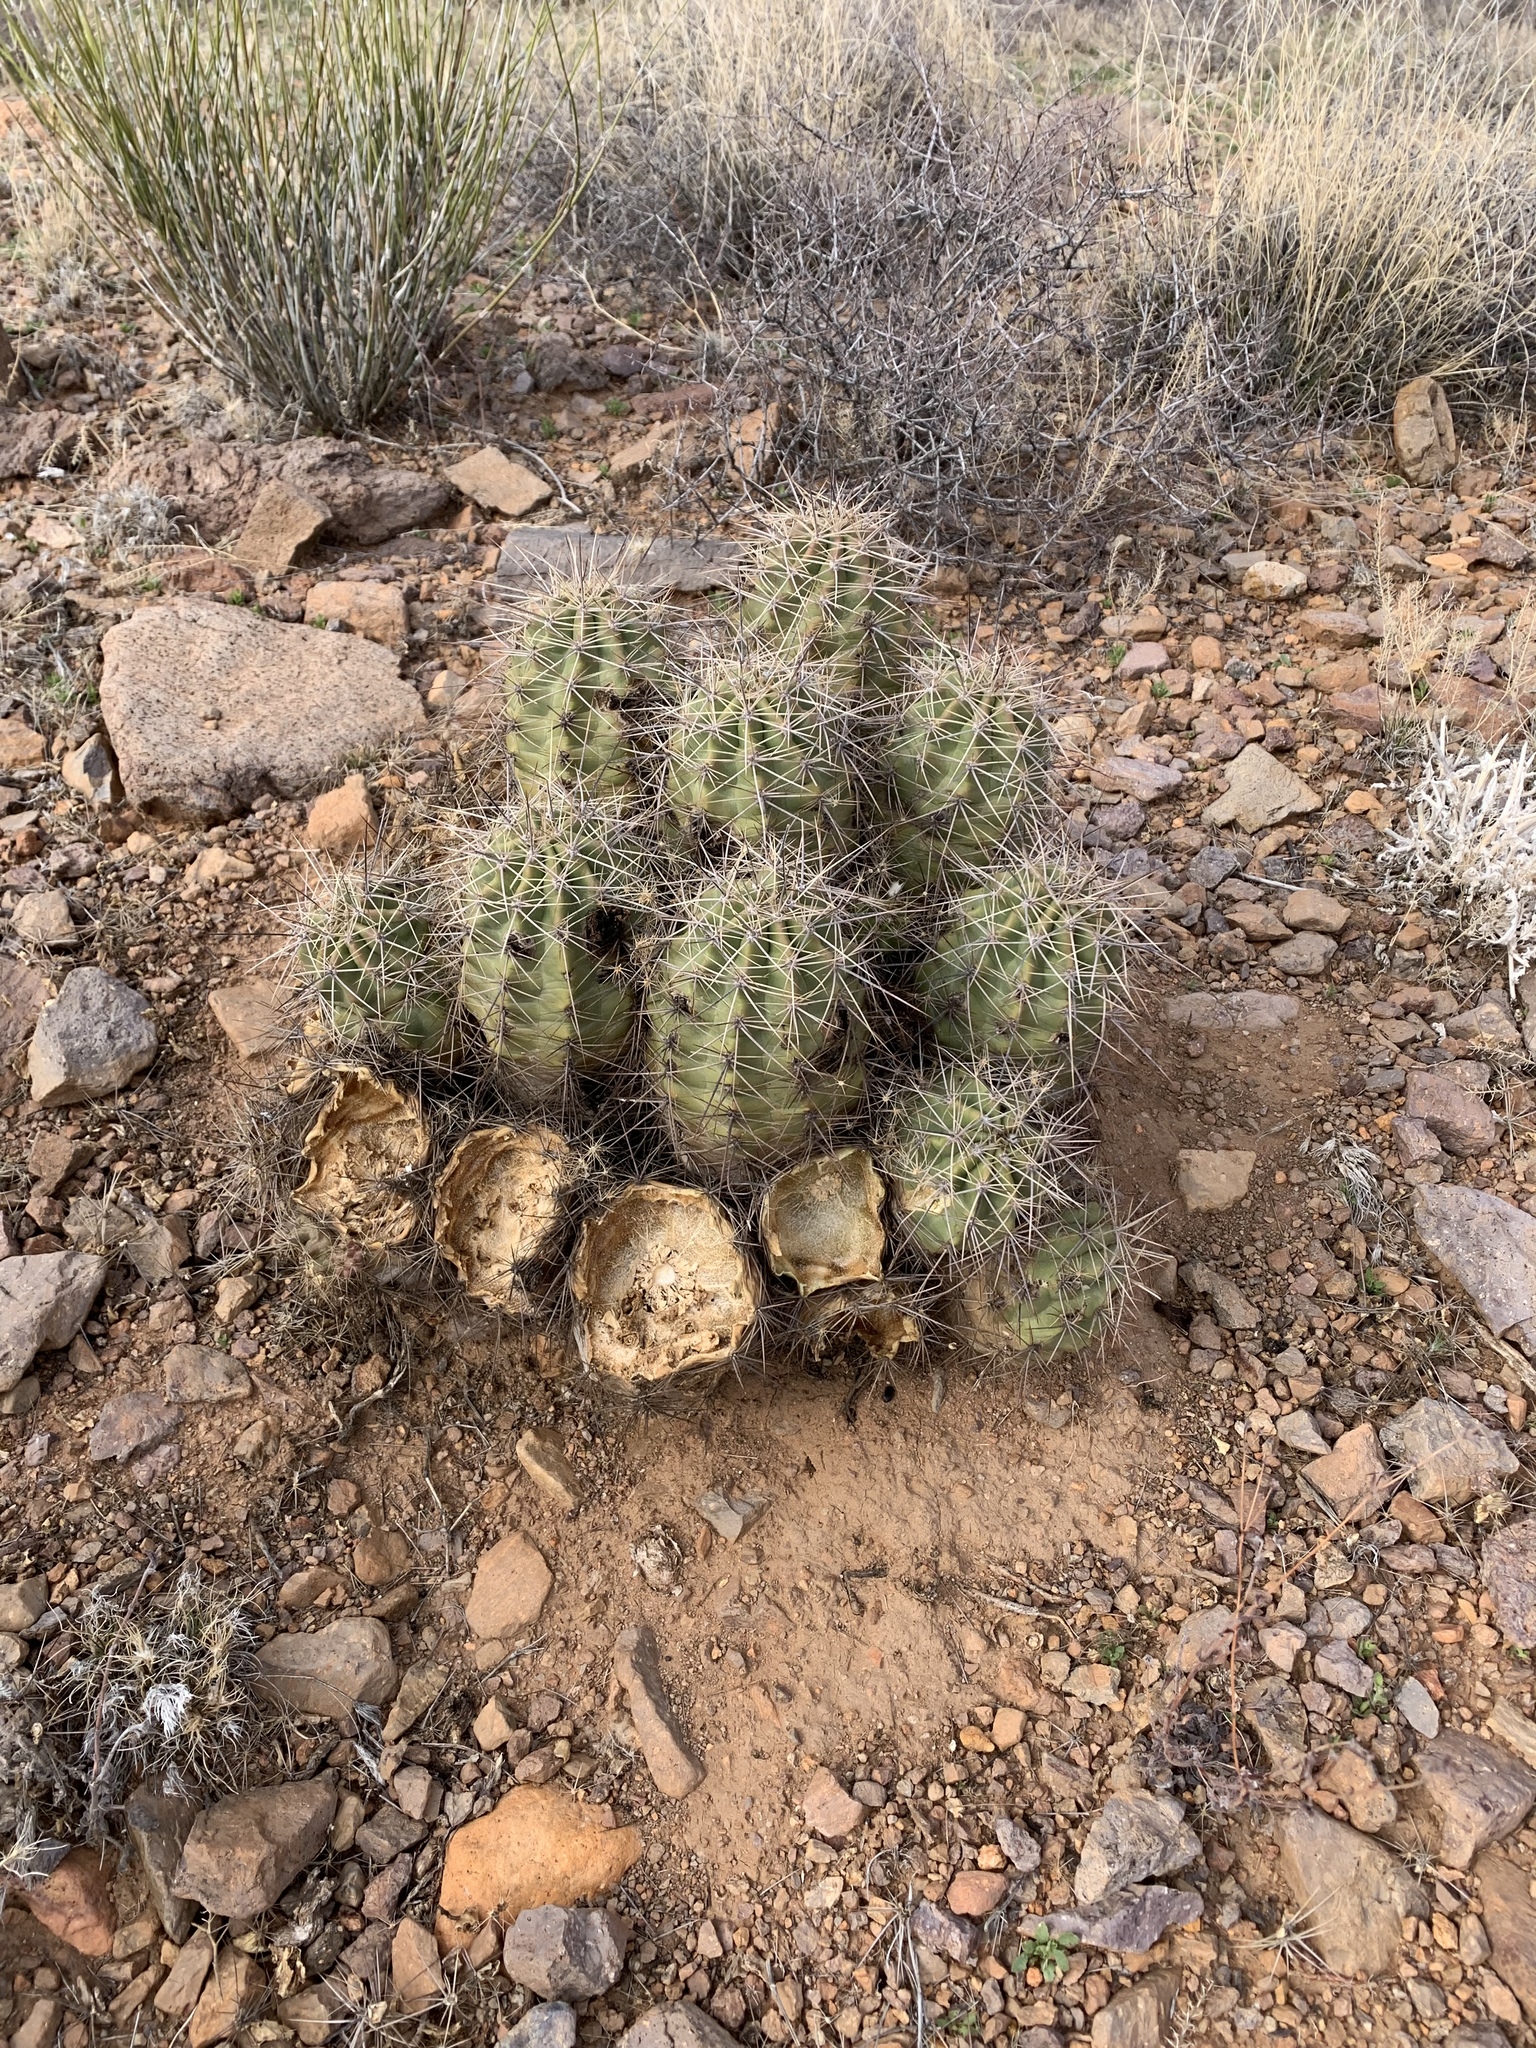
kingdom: Plantae
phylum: Tracheophyta
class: Magnoliopsida
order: Caryophyllales
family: Cactaceae
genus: Echinocereus
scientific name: Echinocereus coccineus
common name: Scarlet hedgehog cactus
